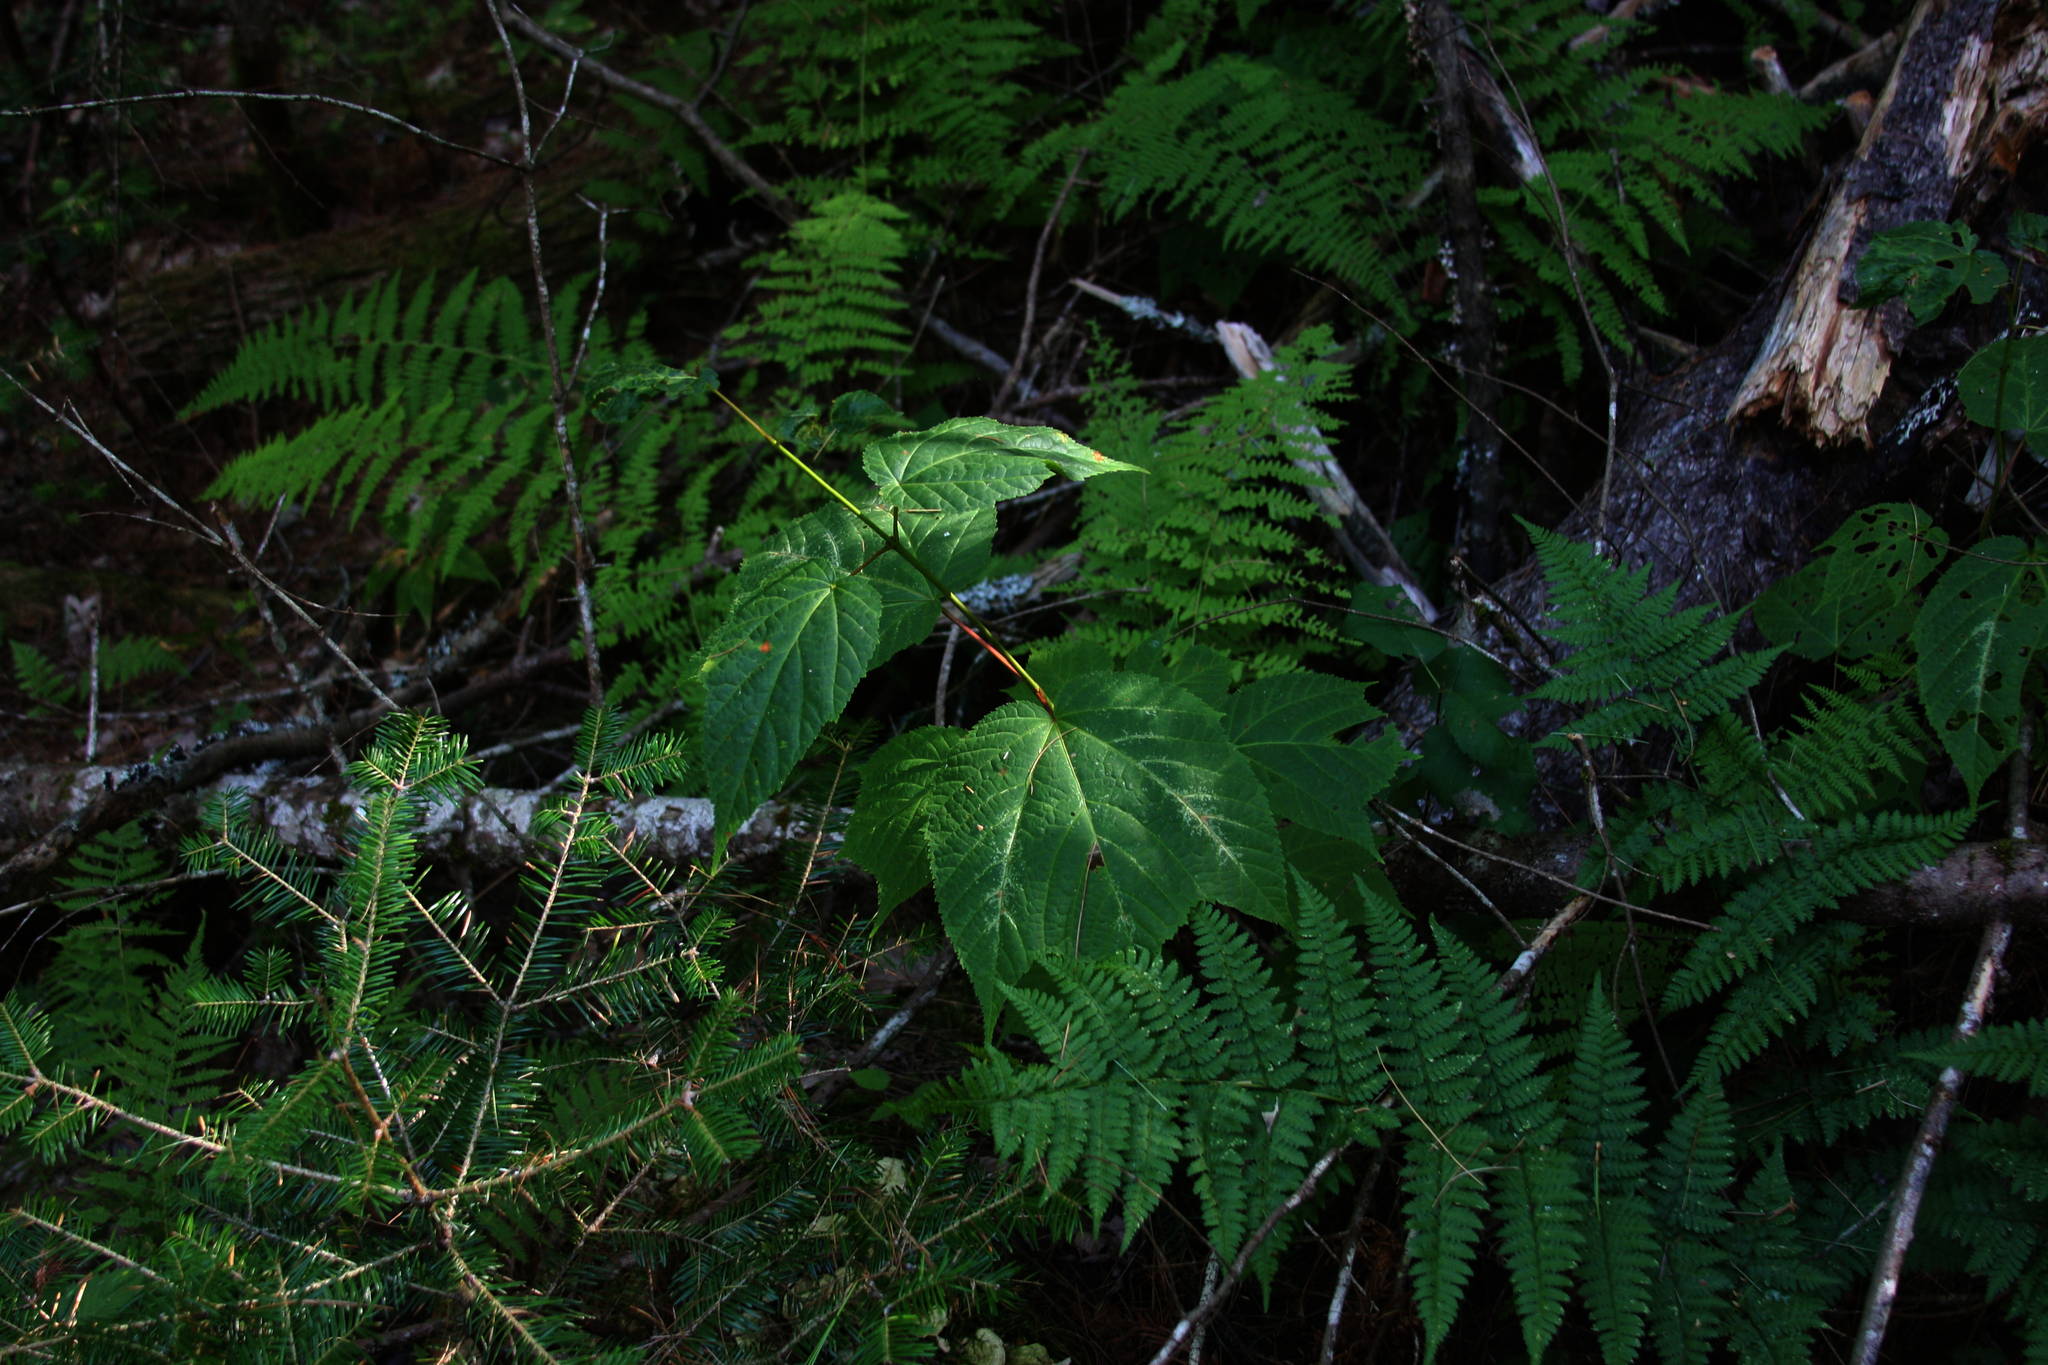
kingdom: Plantae
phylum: Tracheophyta
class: Pinopsida
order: Pinales
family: Pinaceae
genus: Abies
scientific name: Abies balsamea
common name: Balsam fir
